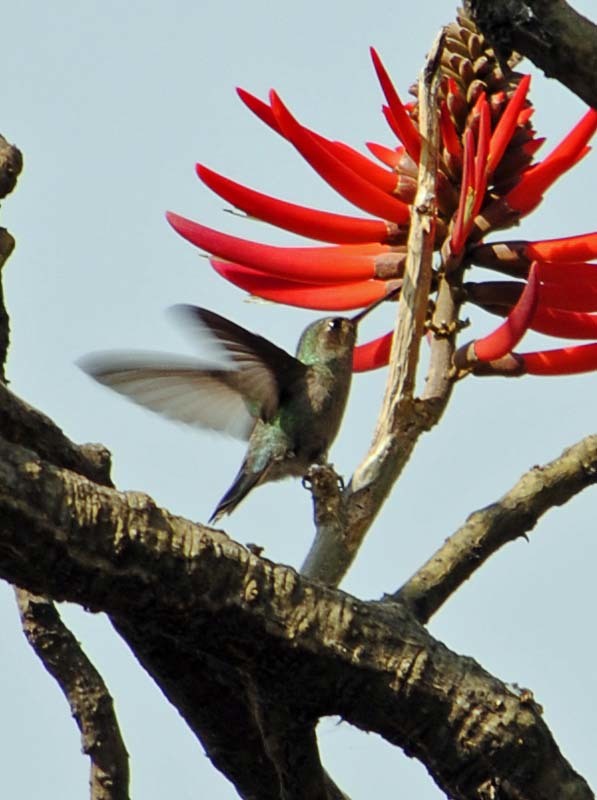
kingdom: Animalia
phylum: Chordata
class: Aves
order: Apodiformes
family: Trochilidae
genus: Cynanthus
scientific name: Cynanthus latirostris
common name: Broad-billed hummingbird
